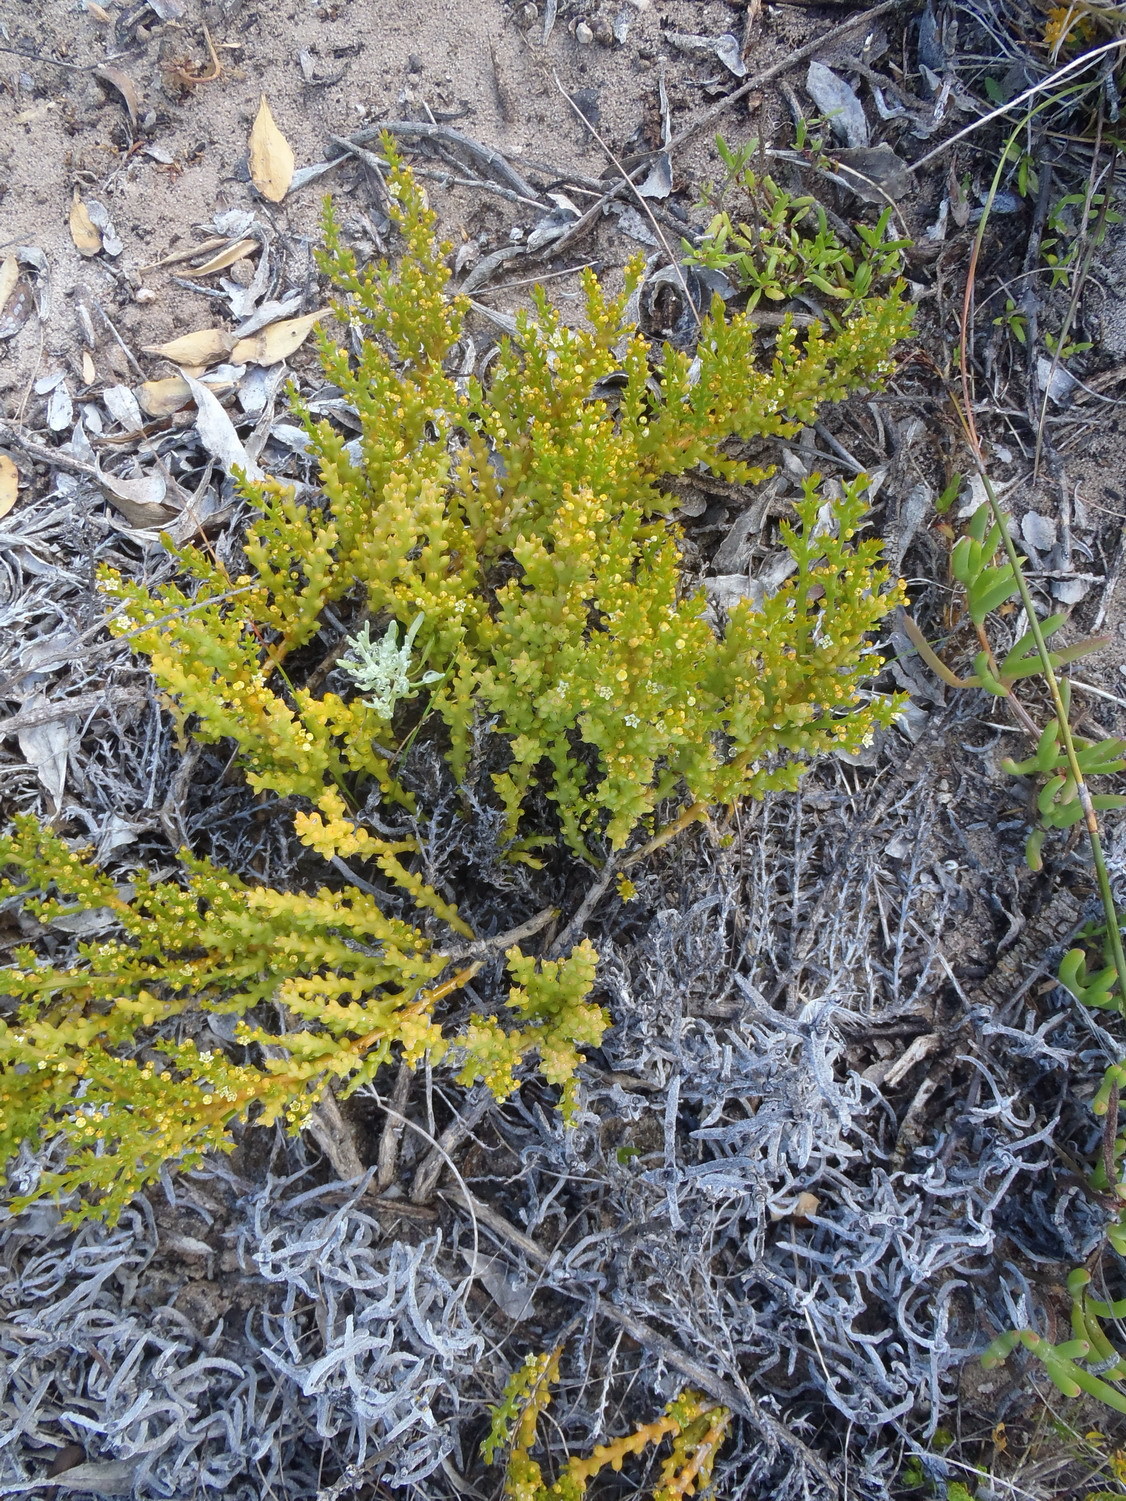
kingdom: Plantae
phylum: Tracheophyta
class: Magnoliopsida
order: Santalales
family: Thesiaceae
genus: Thesium
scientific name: Thesium fragile
